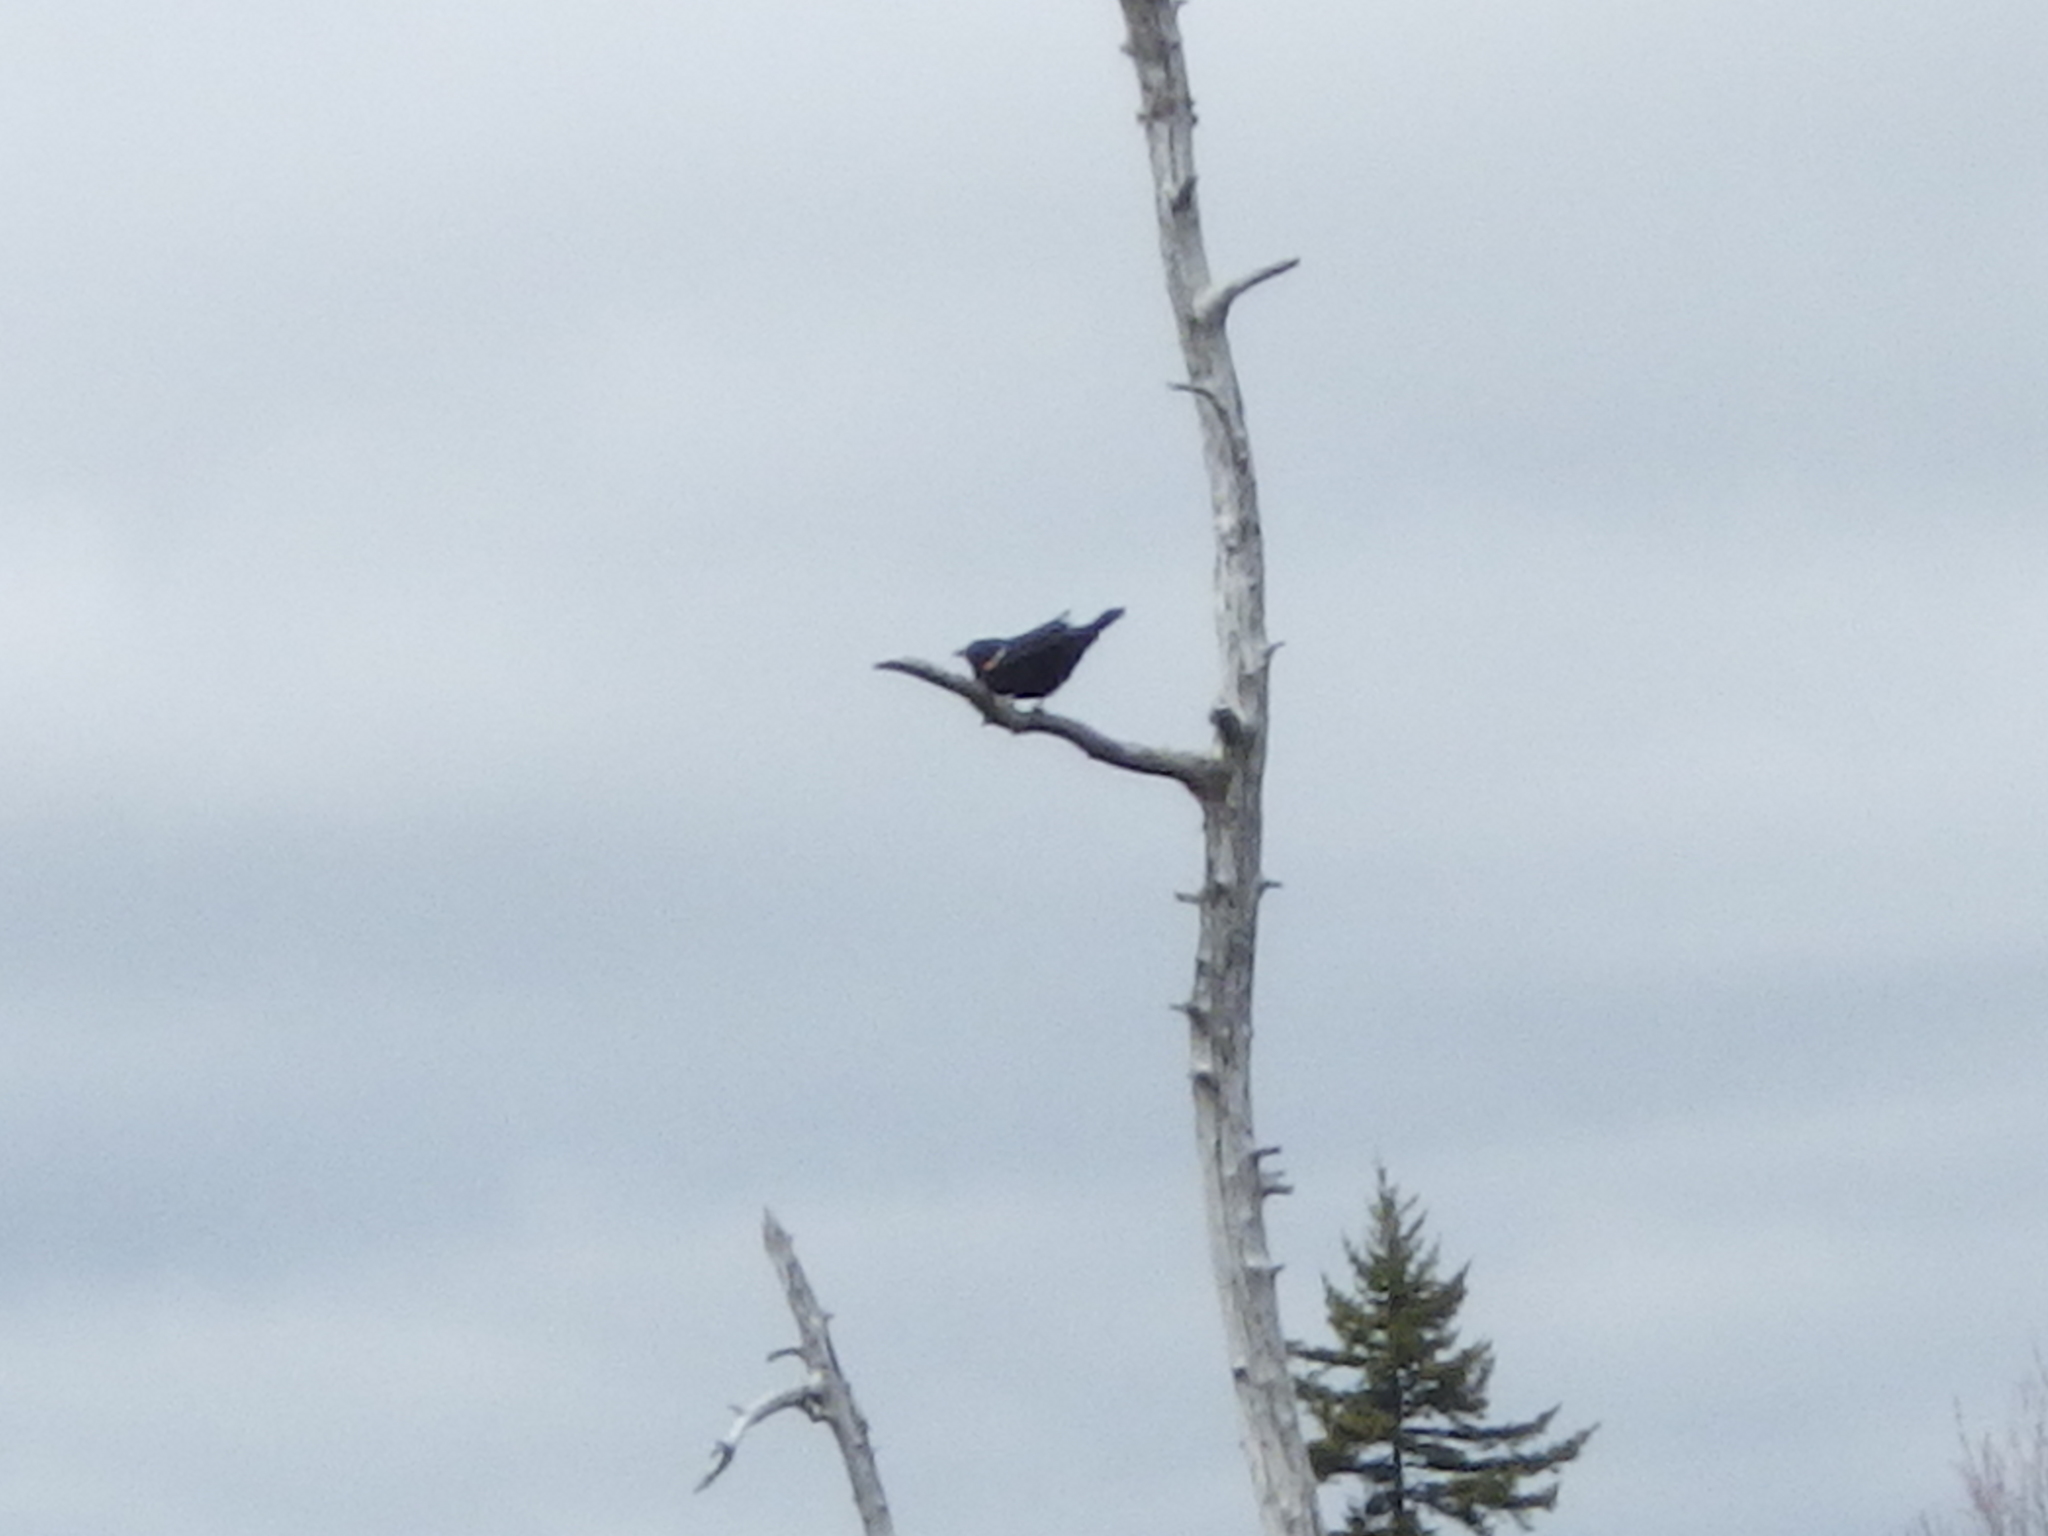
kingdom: Animalia
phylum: Chordata
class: Aves
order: Passeriformes
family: Icteridae
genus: Agelaius
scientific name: Agelaius phoeniceus
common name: Red-winged blackbird
